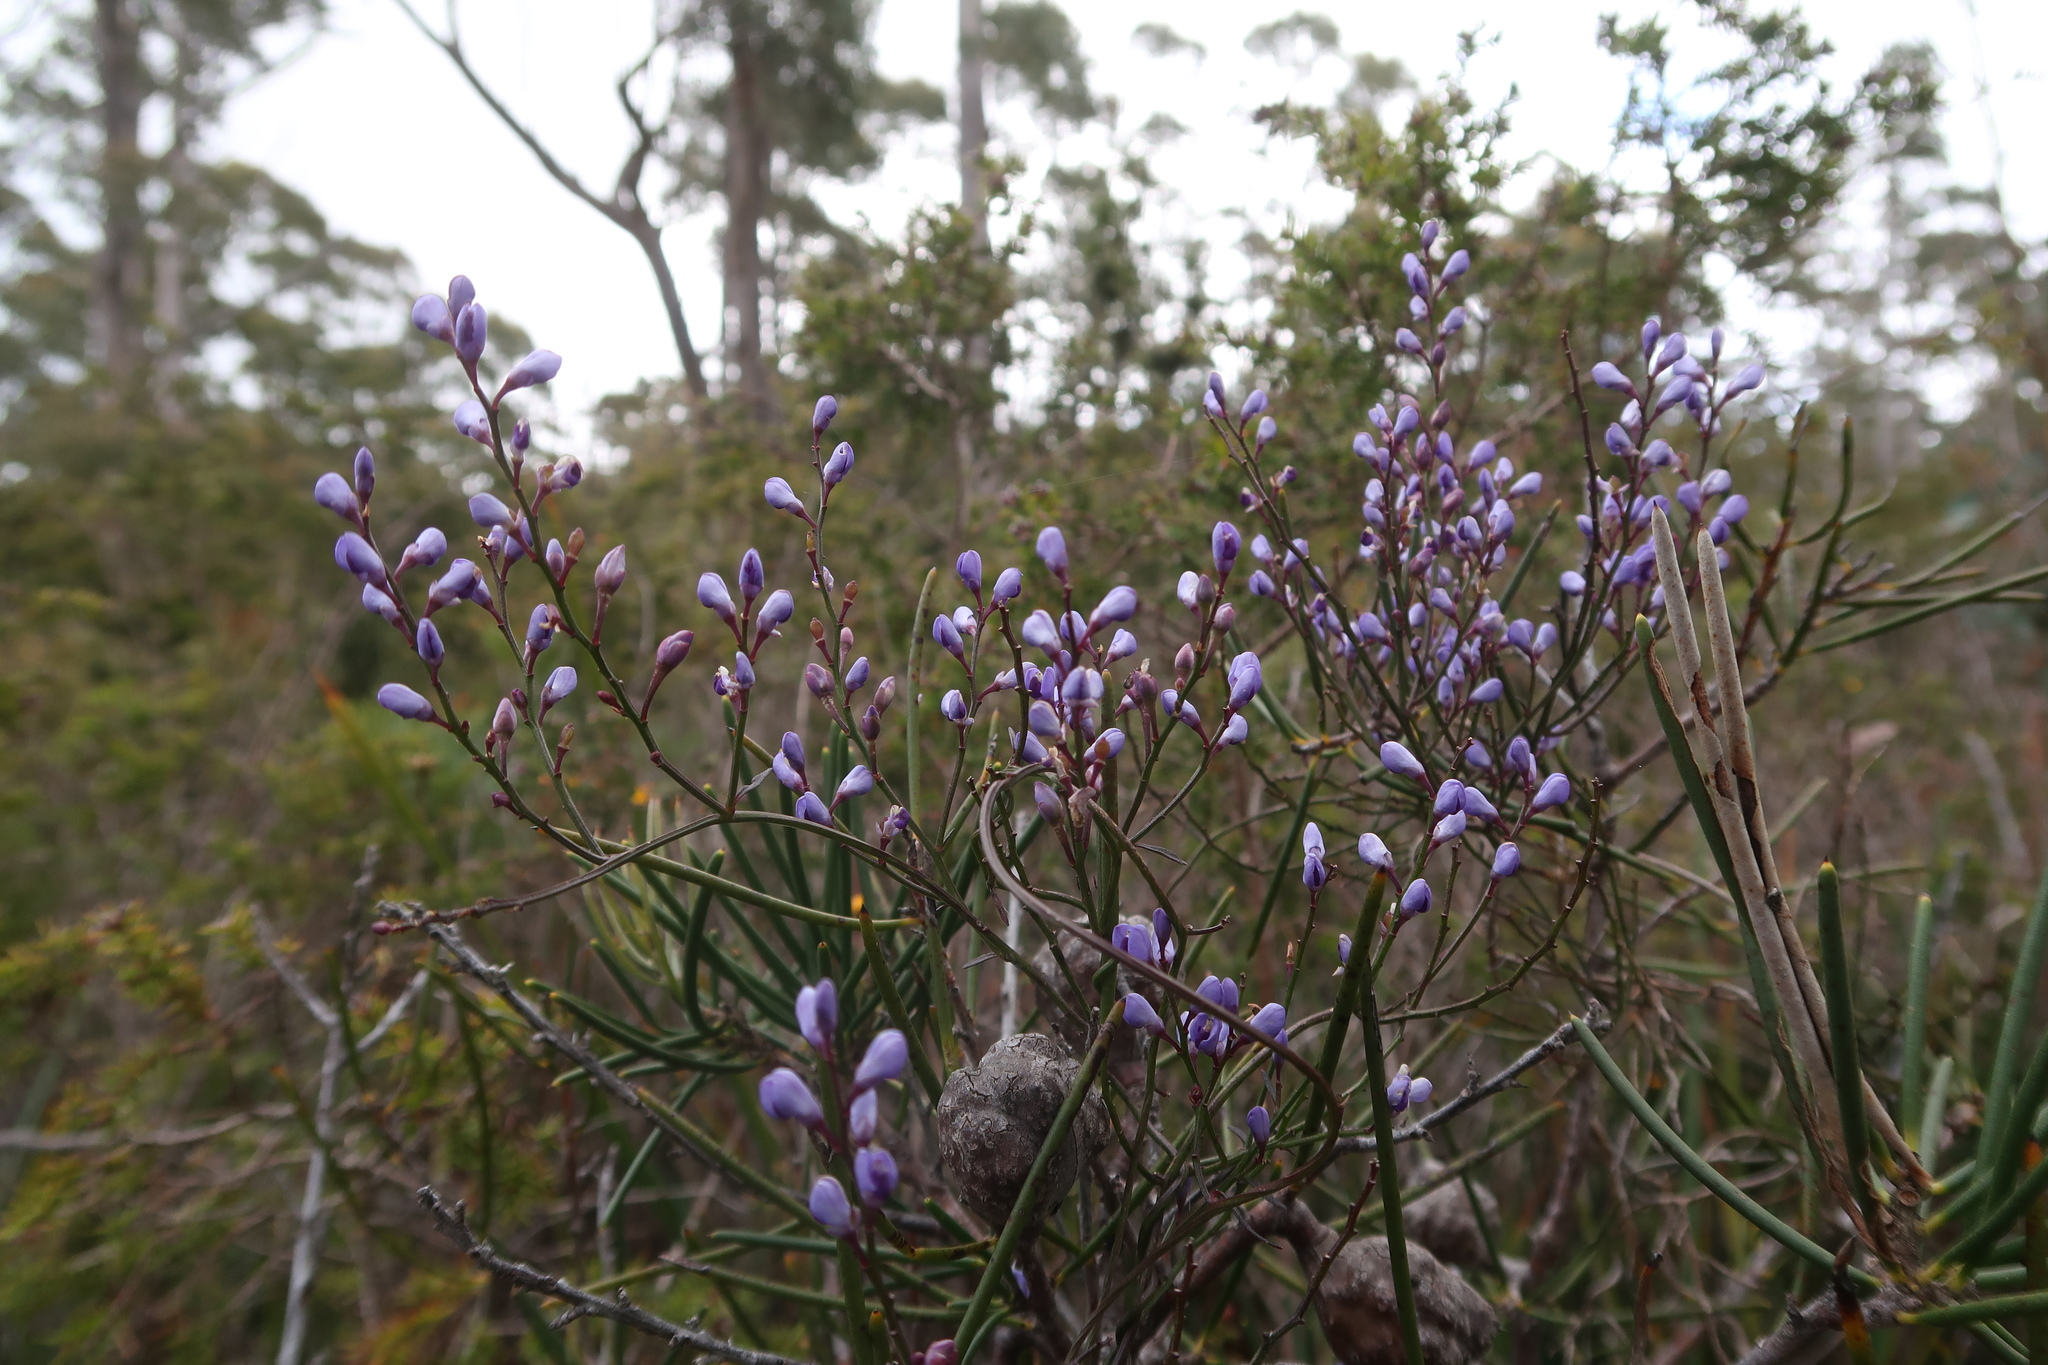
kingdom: Plantae
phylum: Tracheophyta
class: Magnoliopsida
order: Fabales
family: Polygalaceae
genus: Comesperma
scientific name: Comesperma volubile
